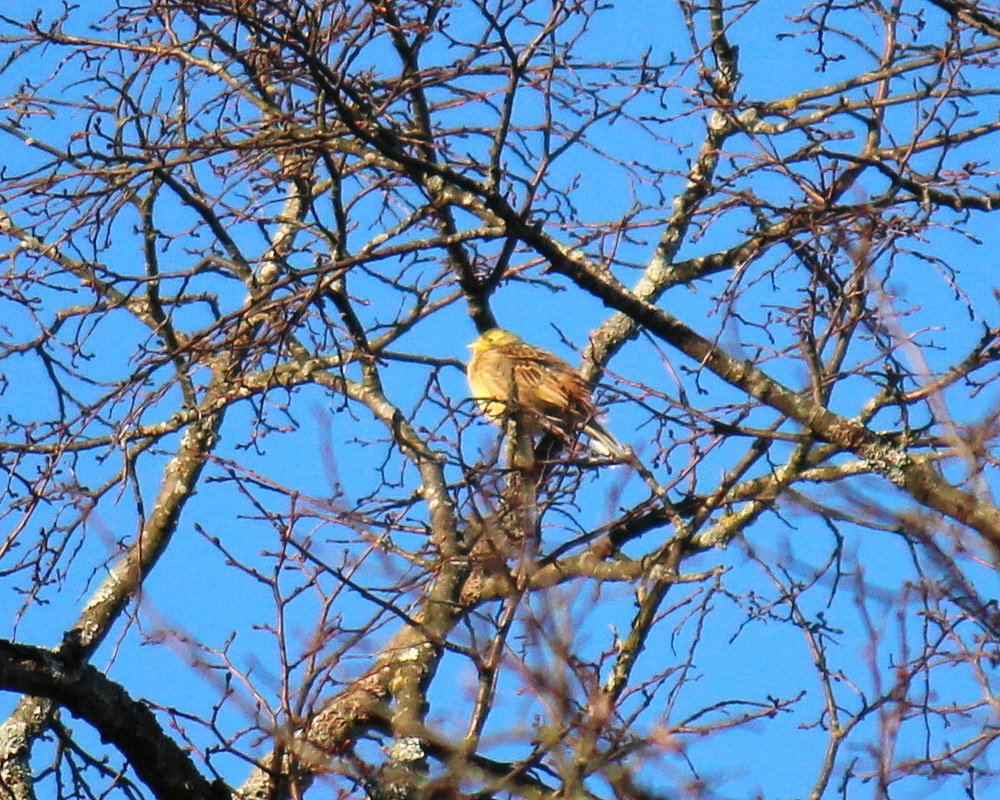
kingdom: Animalia
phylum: Chordata
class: Aves
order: Passeriformes
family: Emberizidae
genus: Emberiza
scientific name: Emberiza citrinella
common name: Yellowhammer
